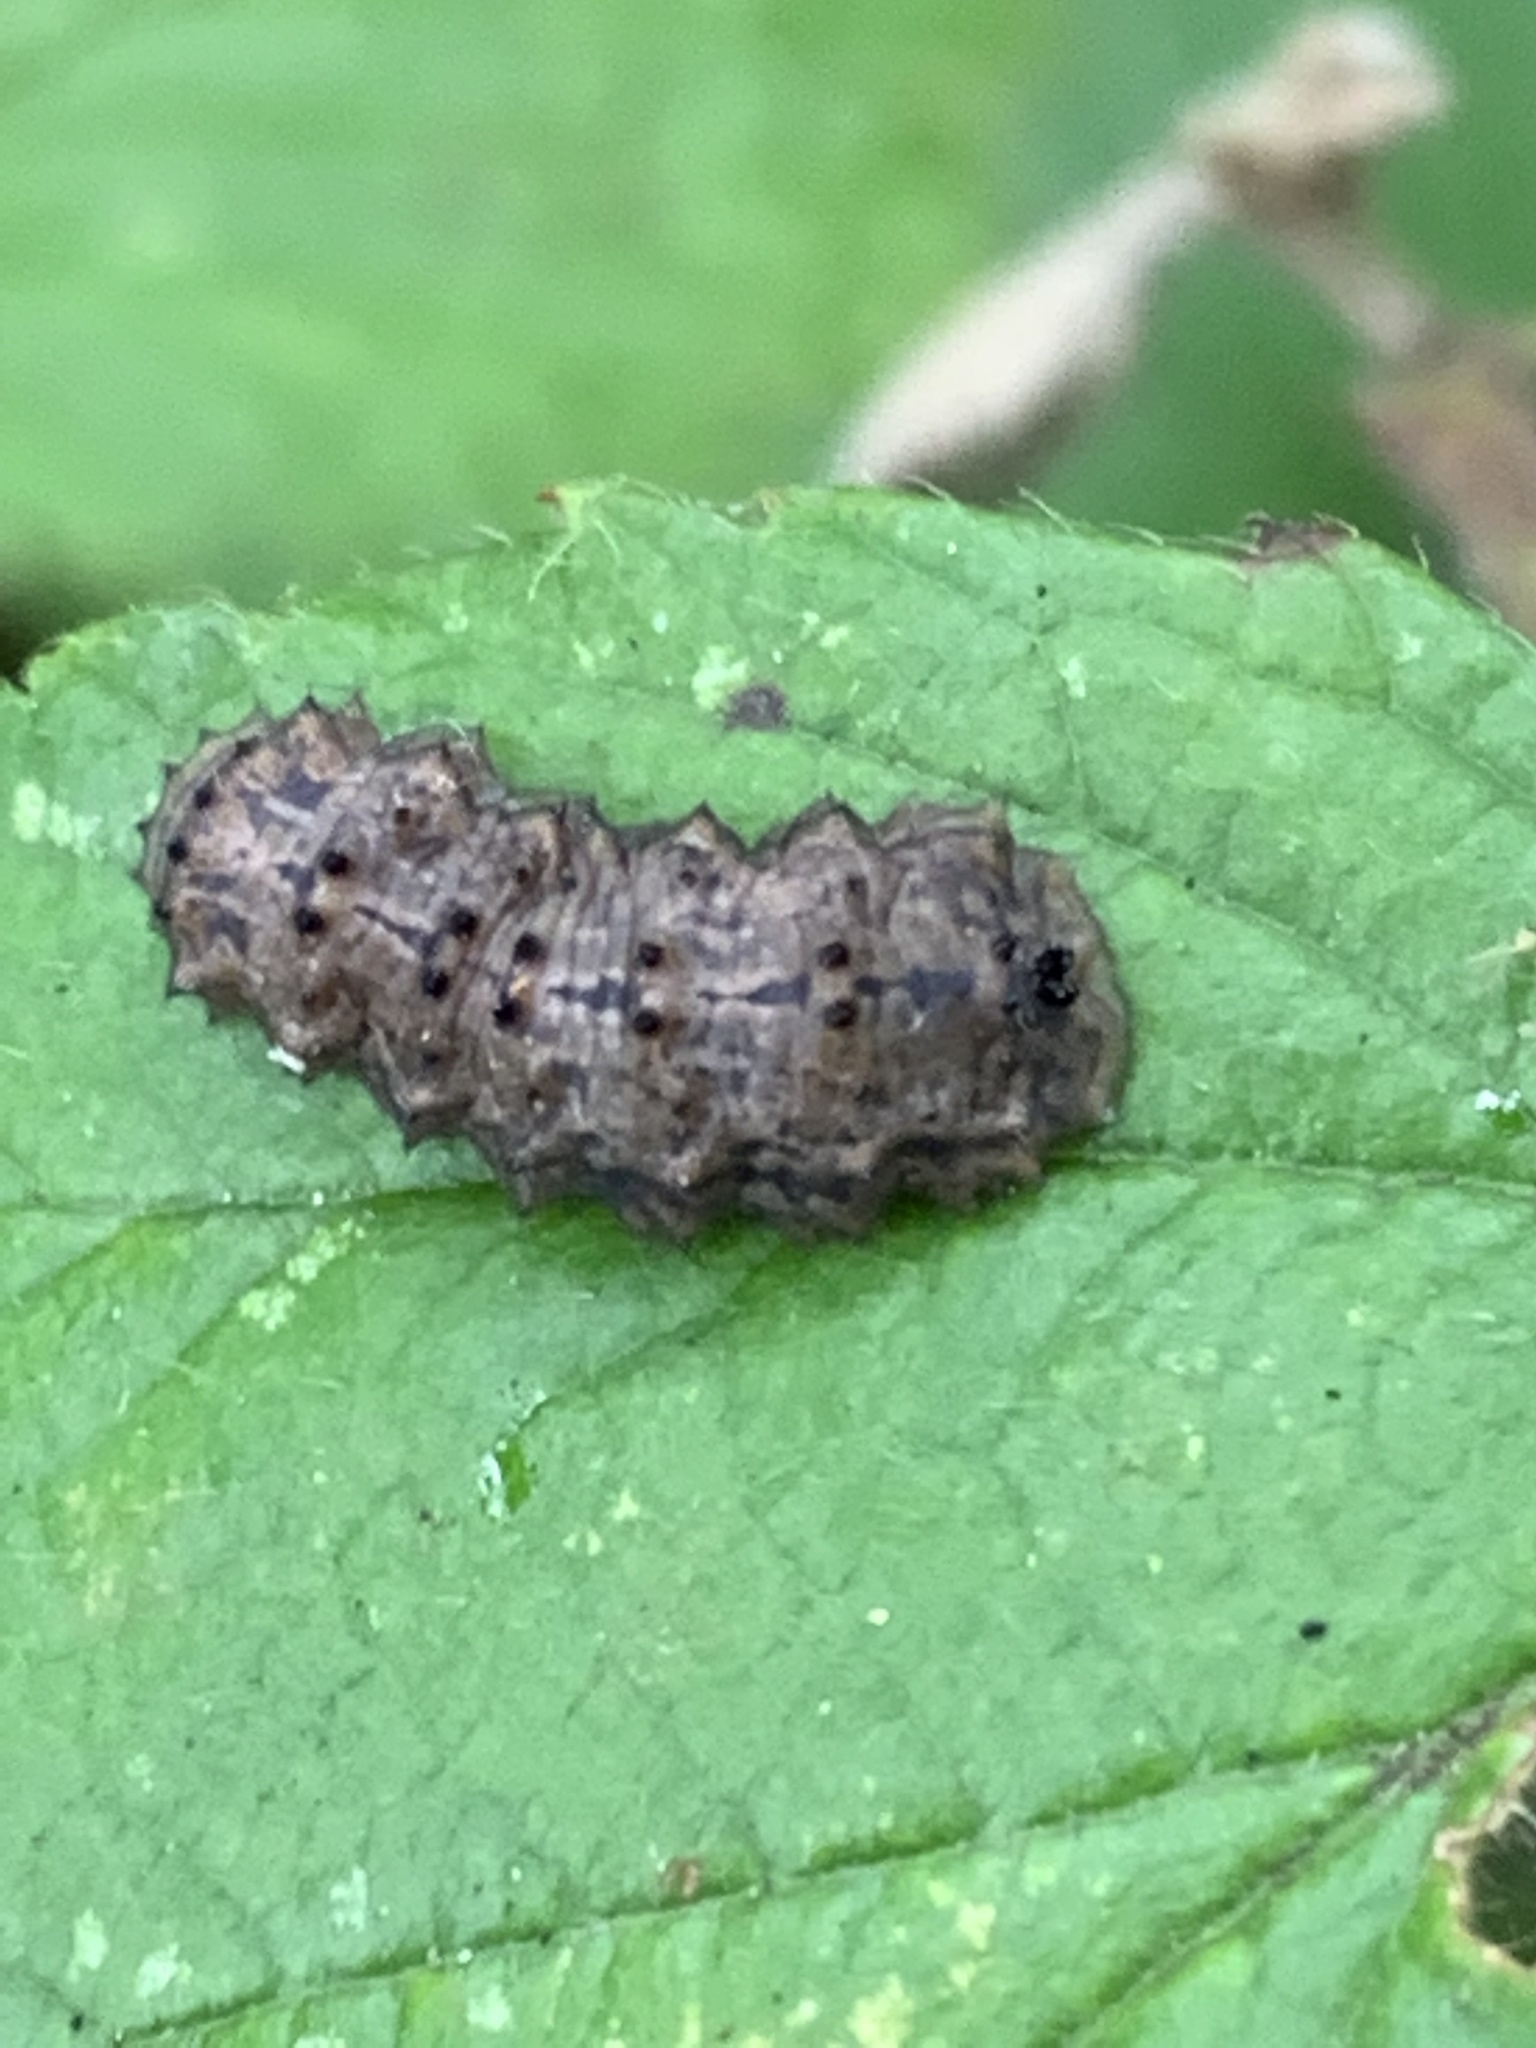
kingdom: Animalia
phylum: Arthropoda
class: Insecta
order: Diptera
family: Syrphidae
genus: Didea
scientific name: Didea
